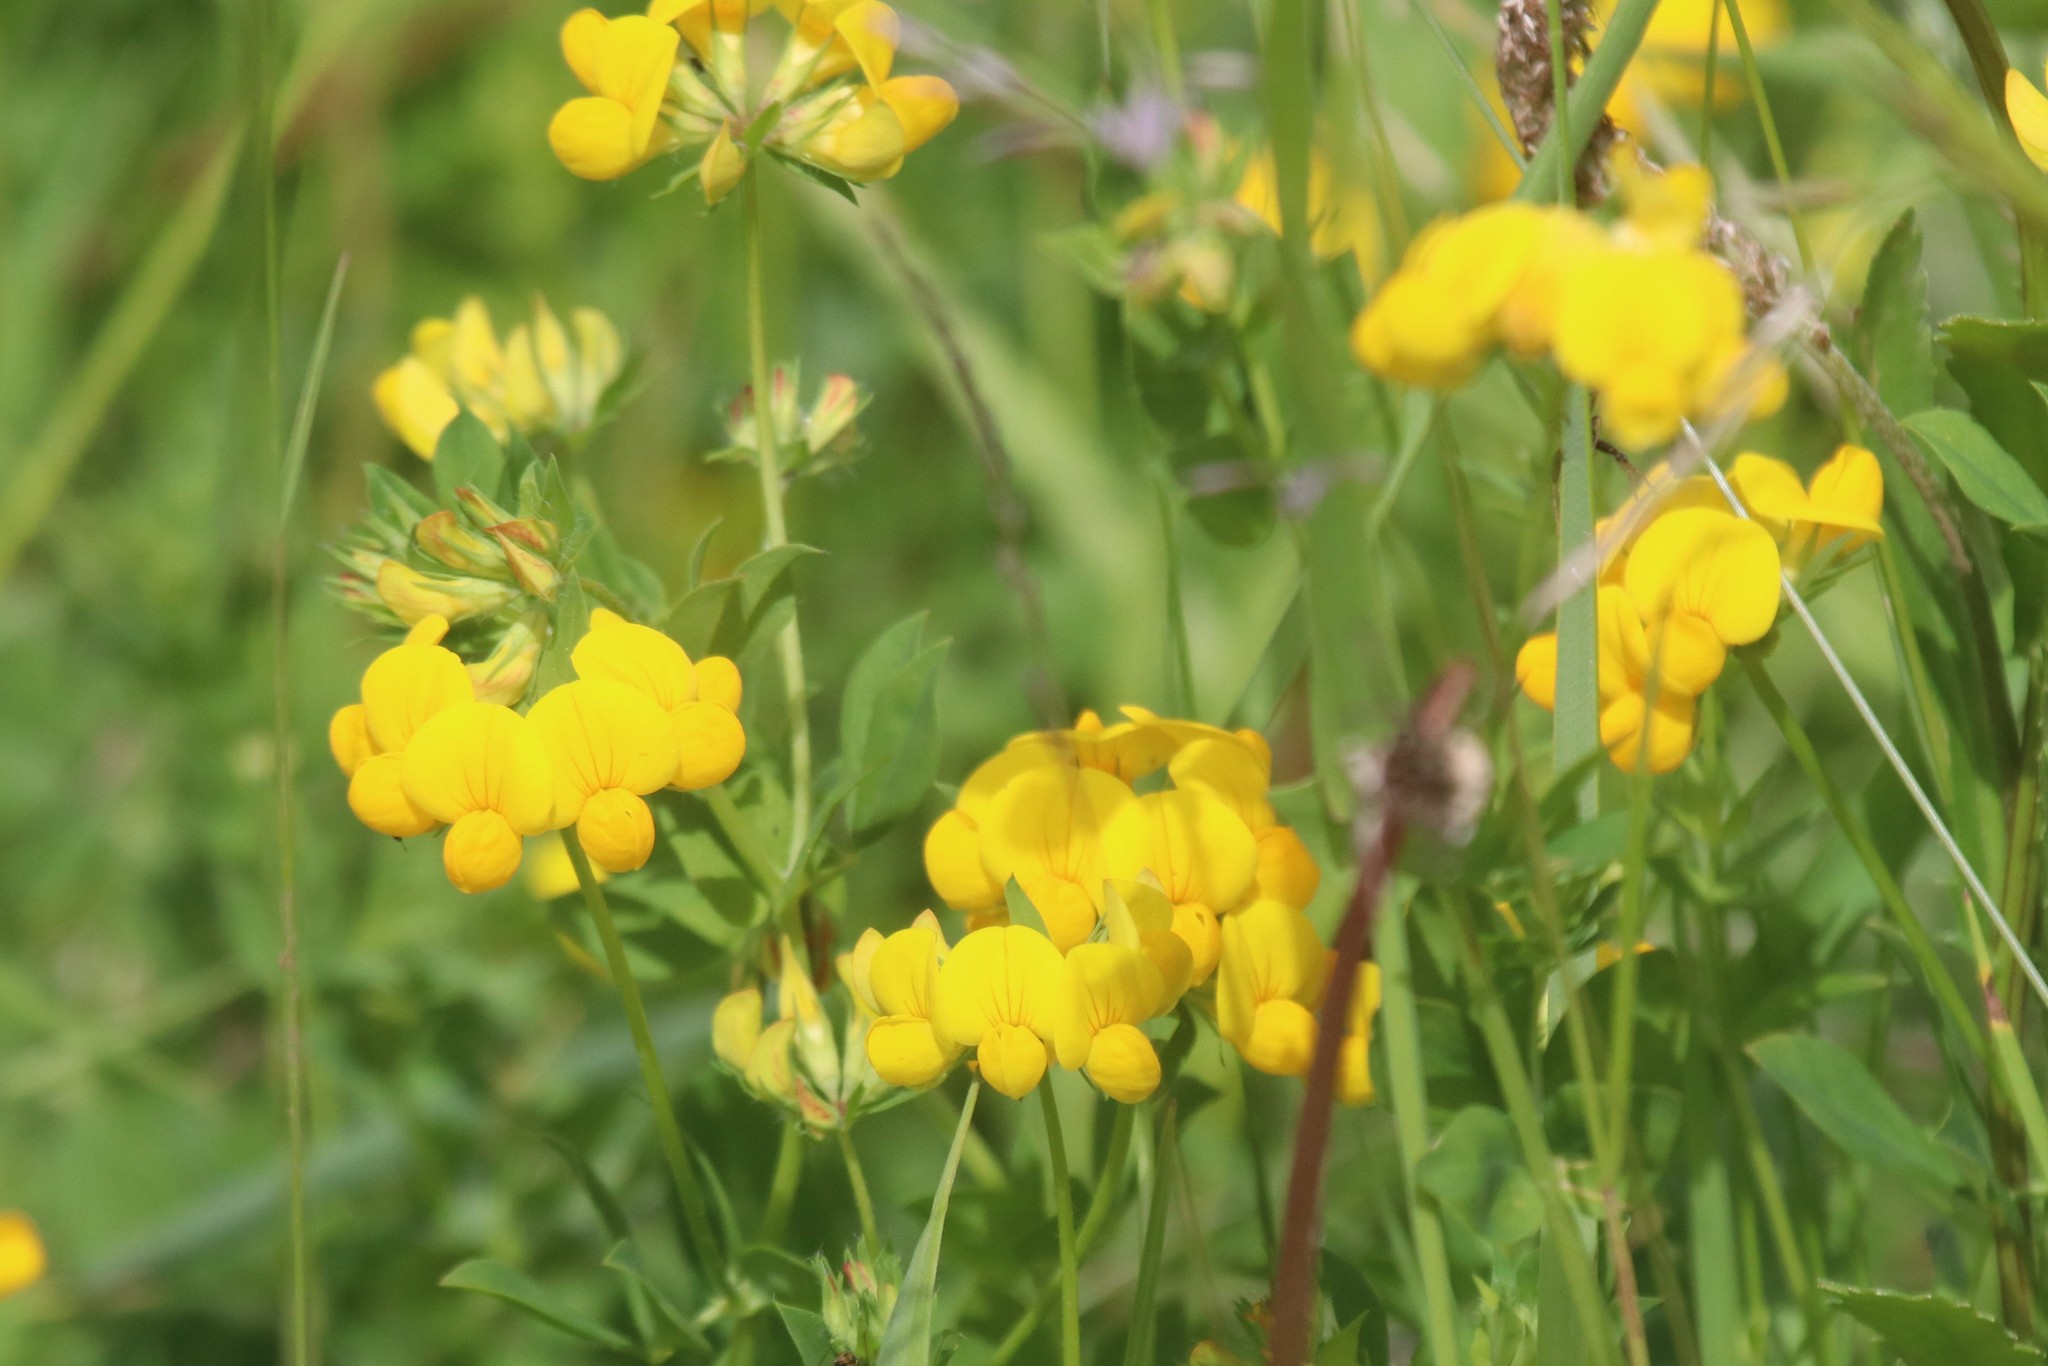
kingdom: Plantae
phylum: Tracheophyta
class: Magnoliopsida
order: Fabales
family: Fabaceae
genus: Lotus
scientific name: Lotus corniculatus
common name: Common bird's-foot-trefoil
